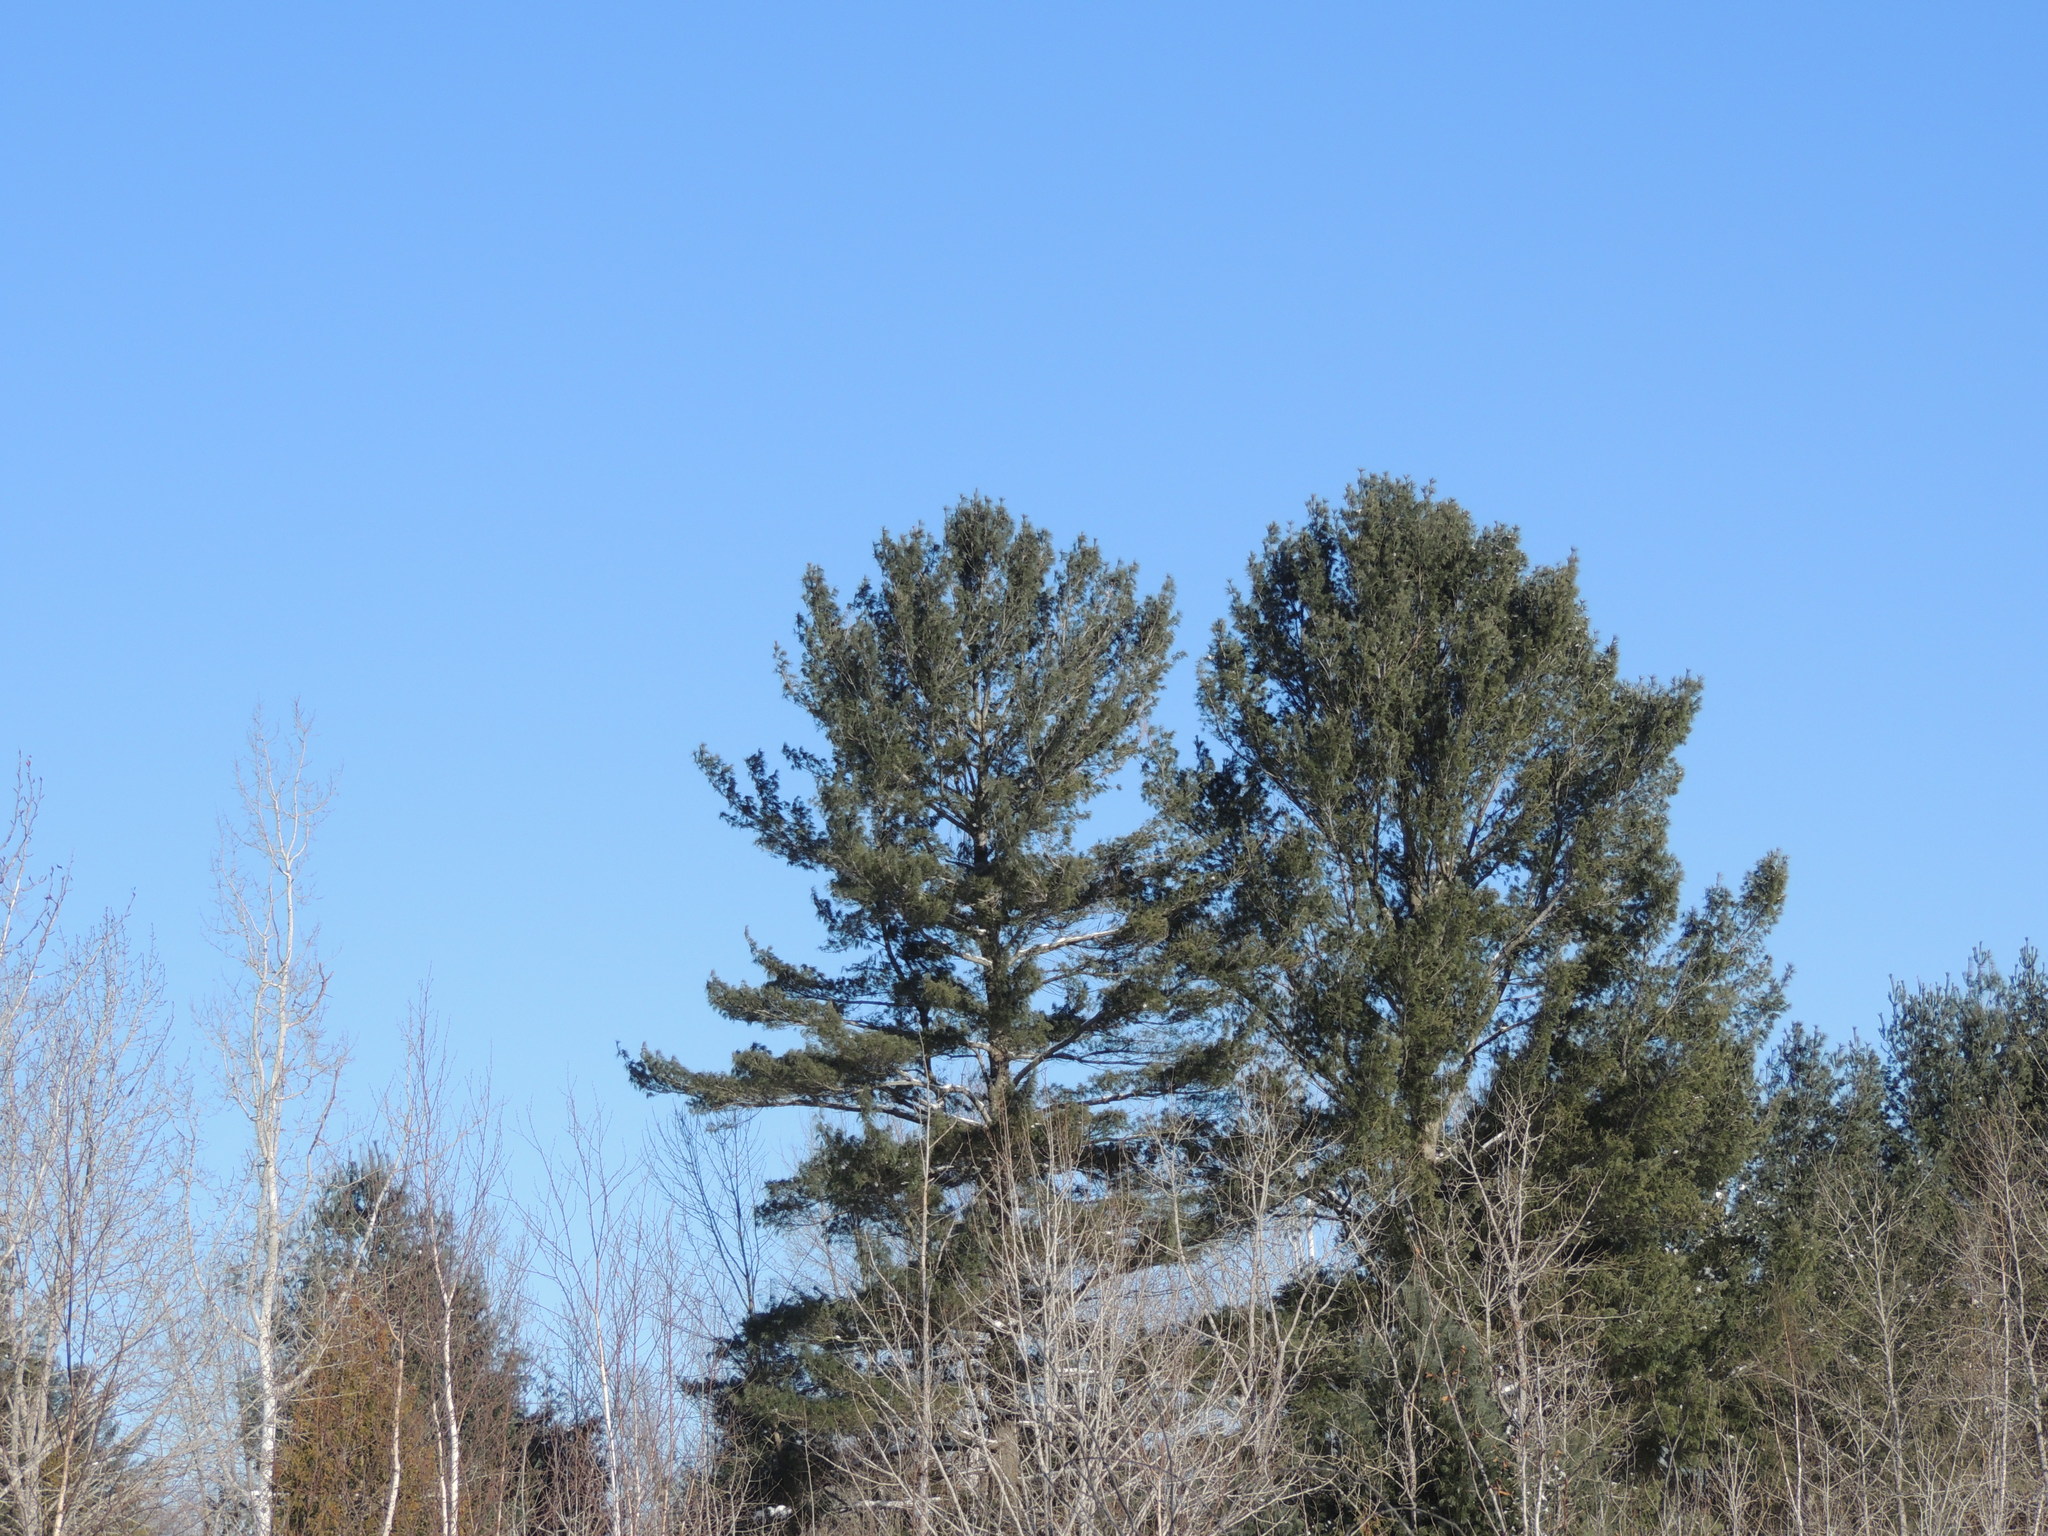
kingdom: Plantae
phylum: Tracheophyta
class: Pinopsida
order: Pinales
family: Pinaceae
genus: Pinus
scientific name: Pinus strobus
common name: Weymouth pine
